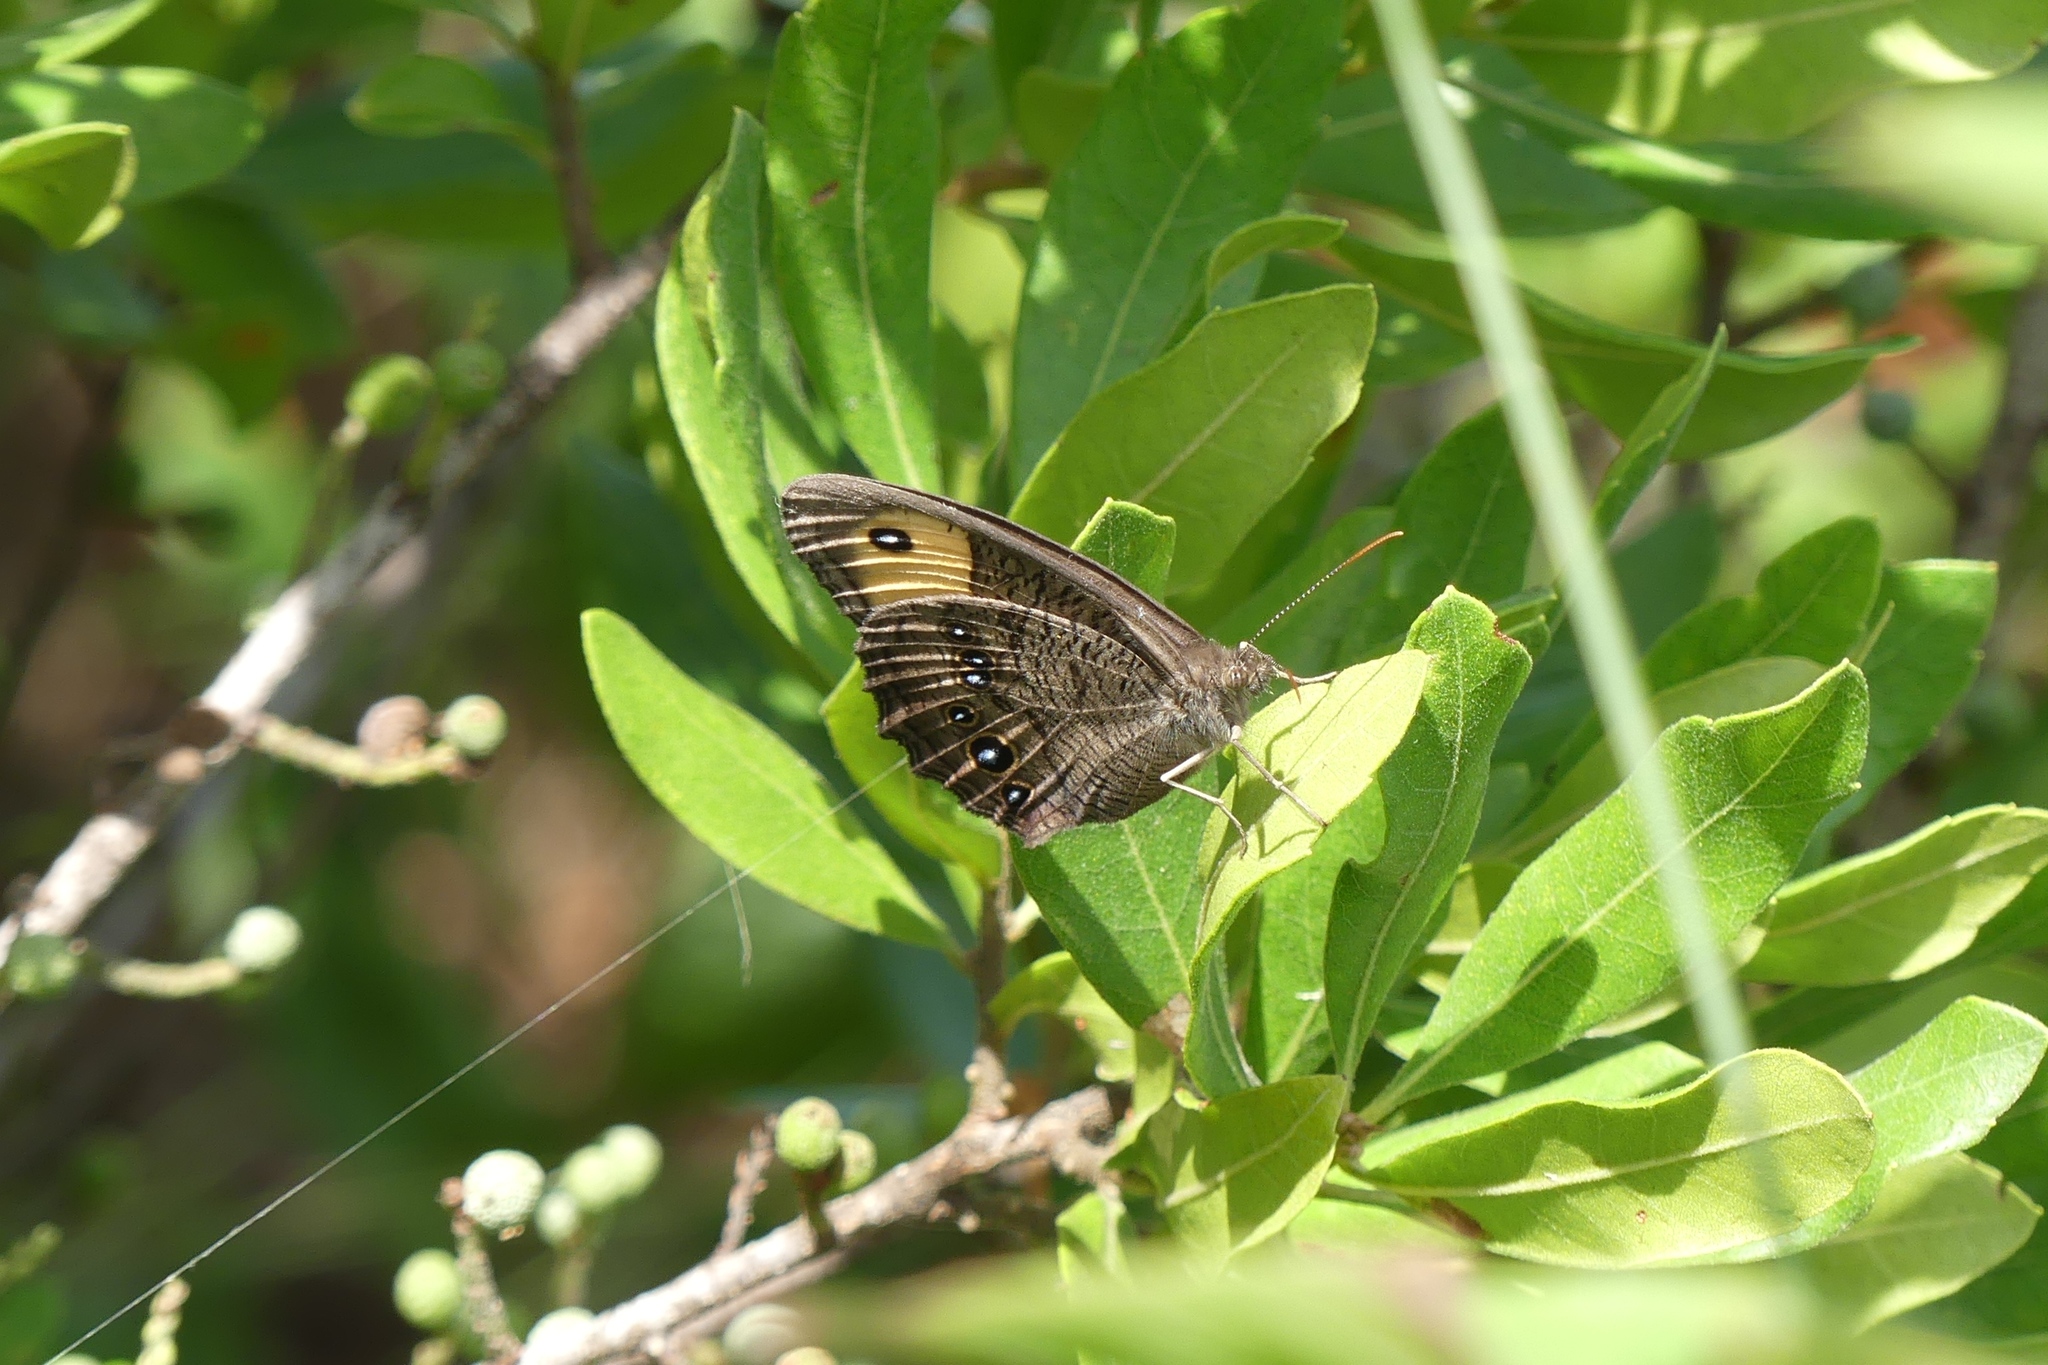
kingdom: Animalia
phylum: Arthropoda
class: Insecta
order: Lepidoptera
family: Nymphalidae
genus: Cercyonis
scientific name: Cercyonis pegala
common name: Common wood-nymph
